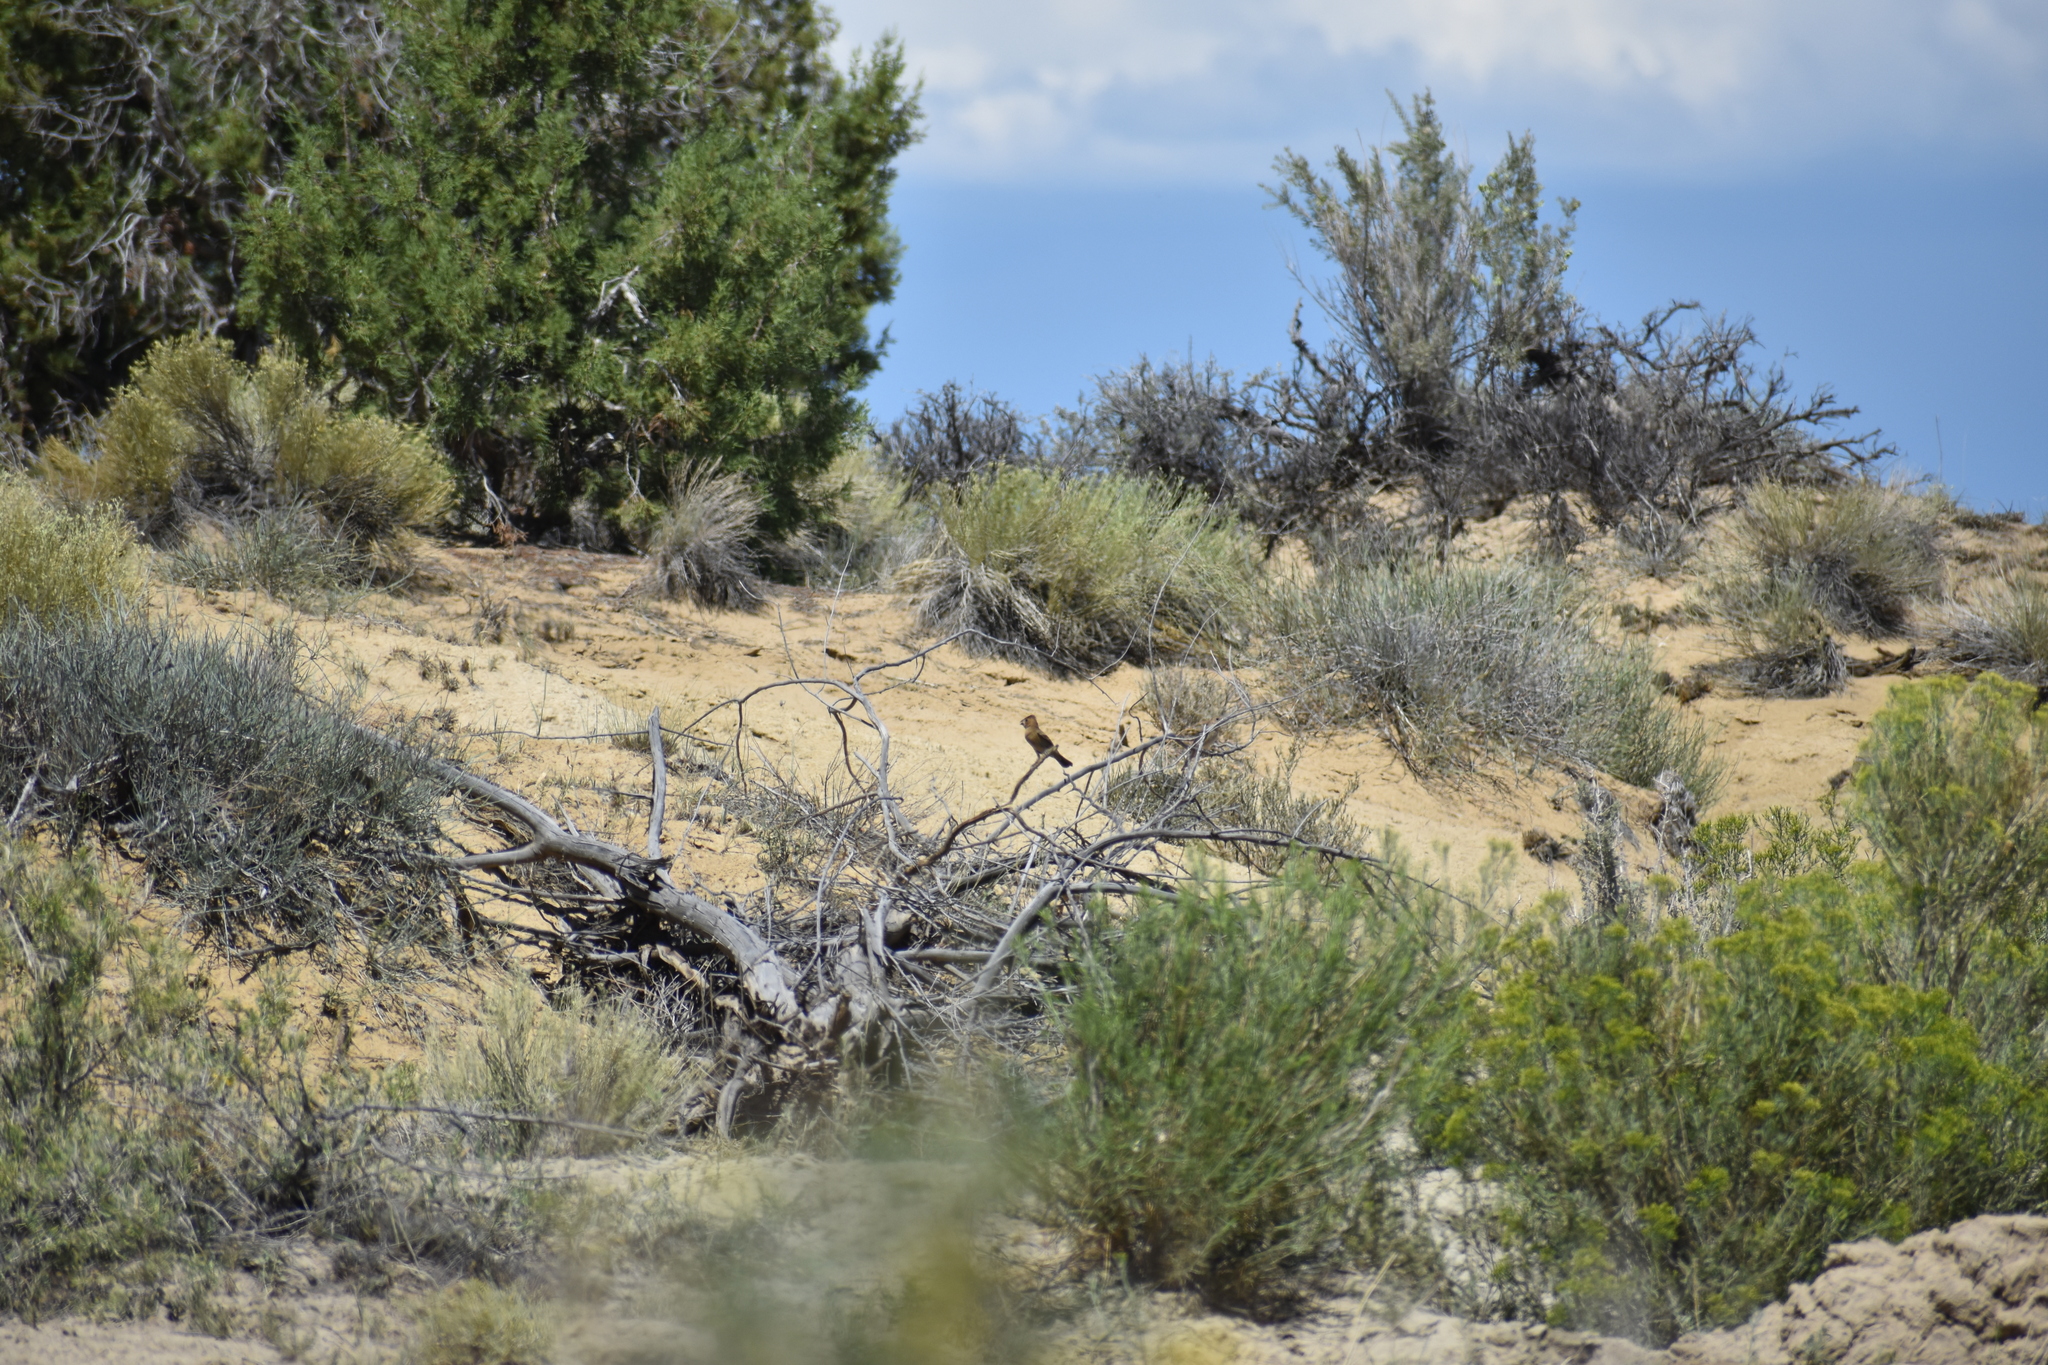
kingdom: Animalia
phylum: Chordata
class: Aves
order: Passeriformes
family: Cardinalidae
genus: Passerina
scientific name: Passerina caerulea
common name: Blue grosbeak
